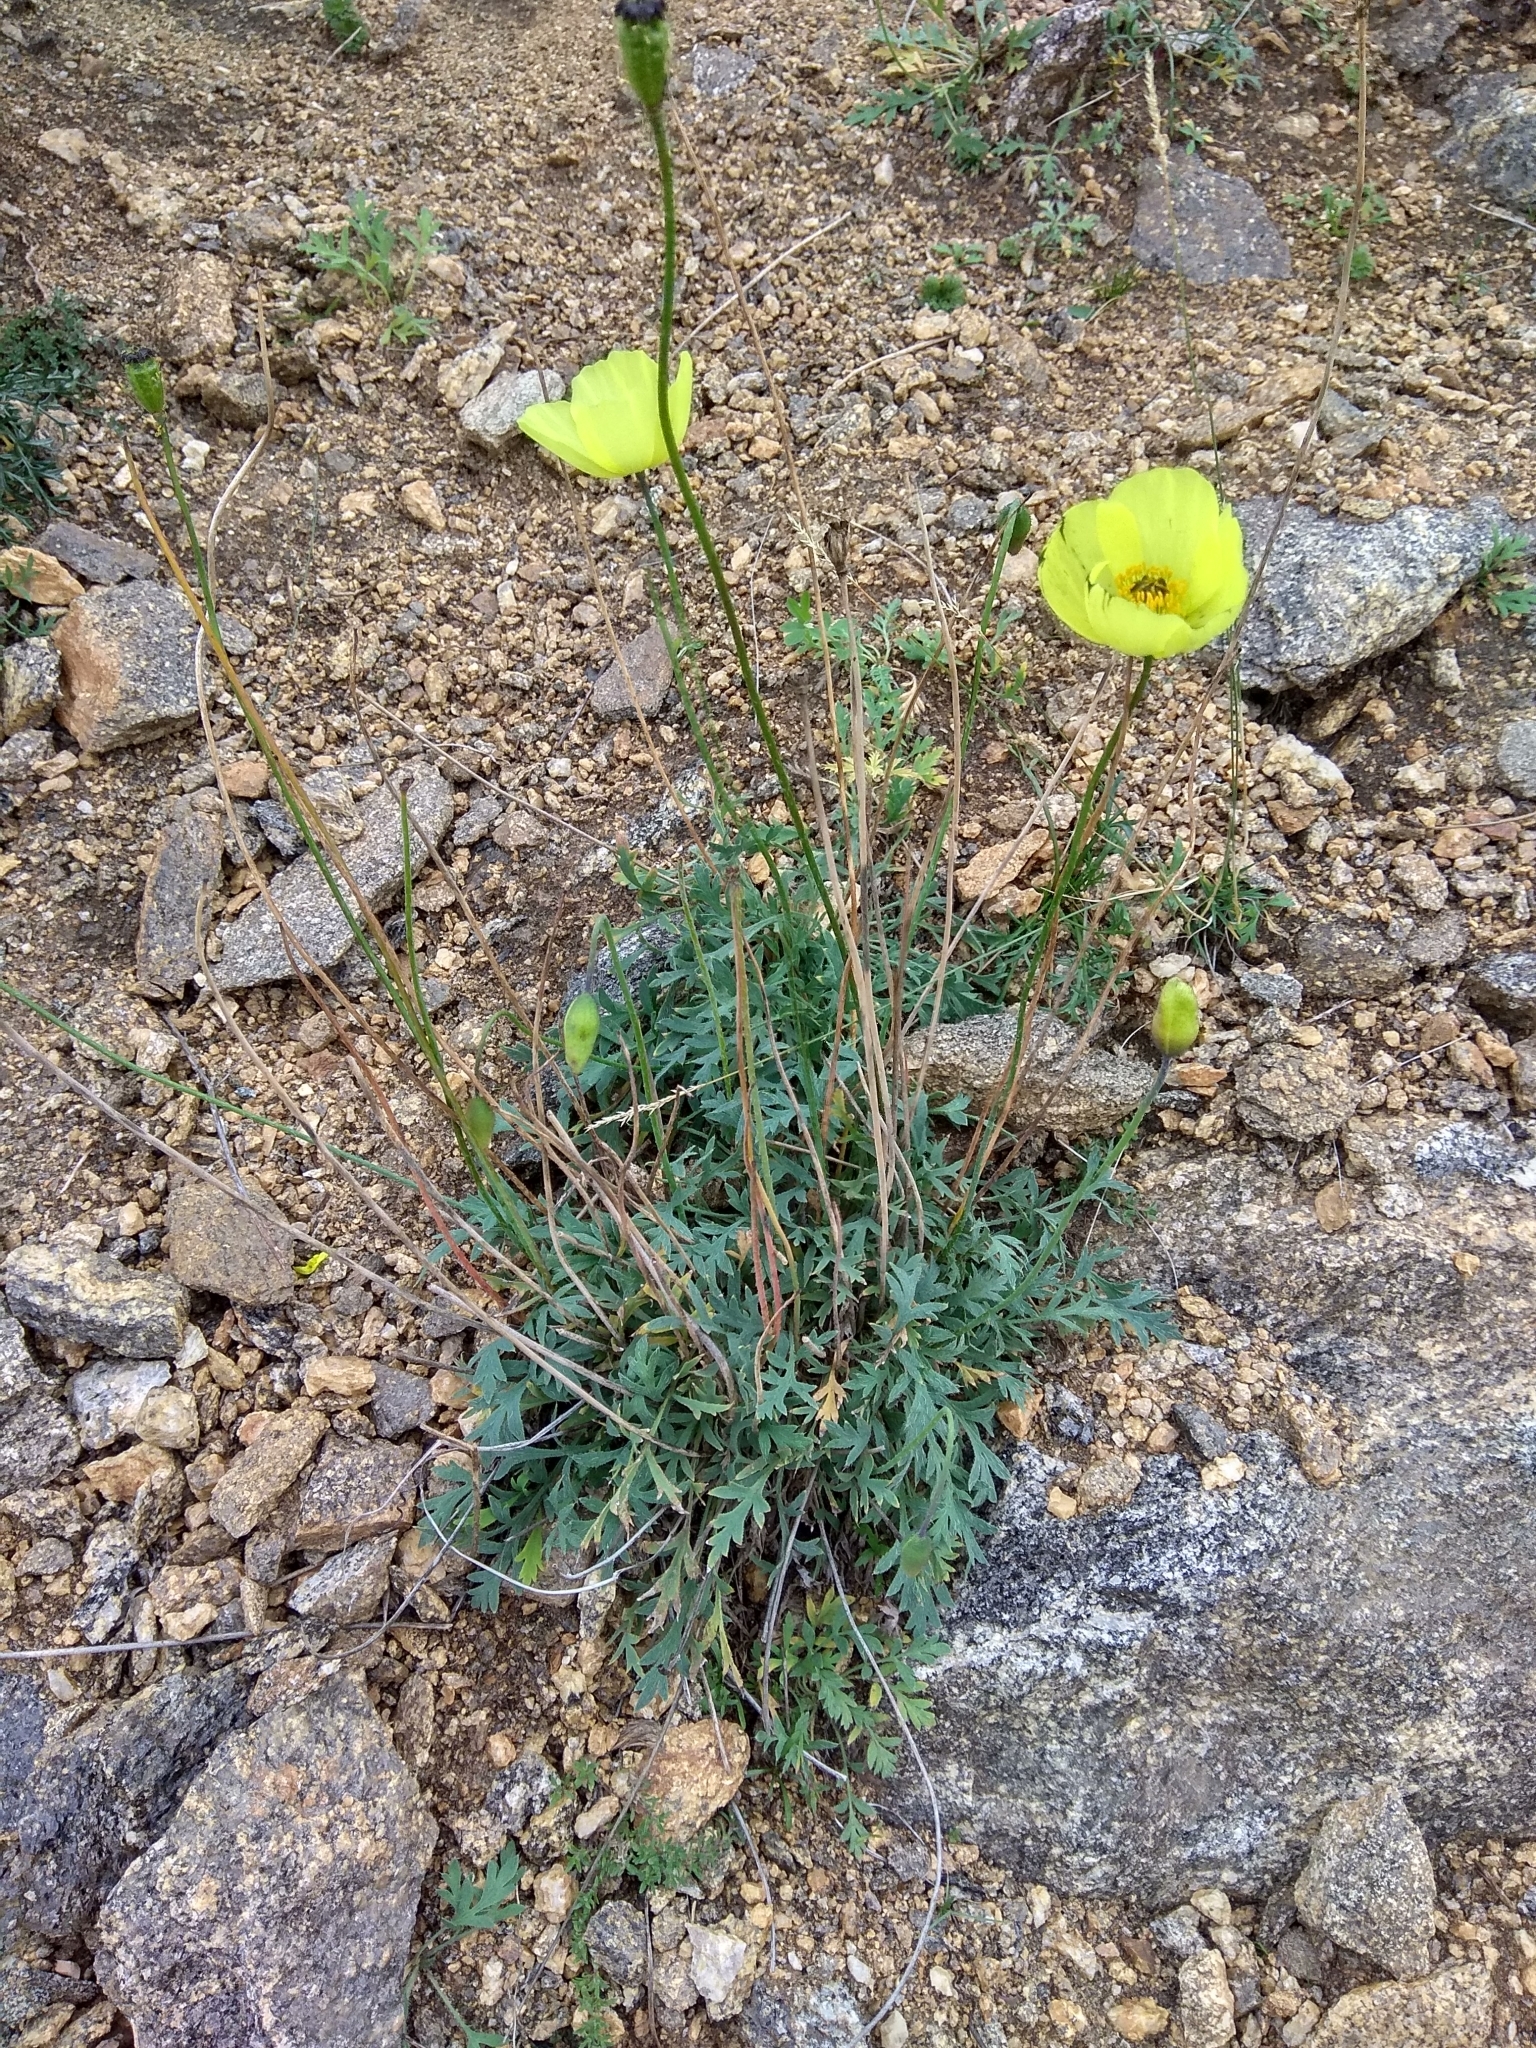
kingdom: Plantae
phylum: Tracheophyta
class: Magnoliopsida
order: Ranunculales
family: Papaveraceae
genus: Papaver
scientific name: Papaver olchonense
